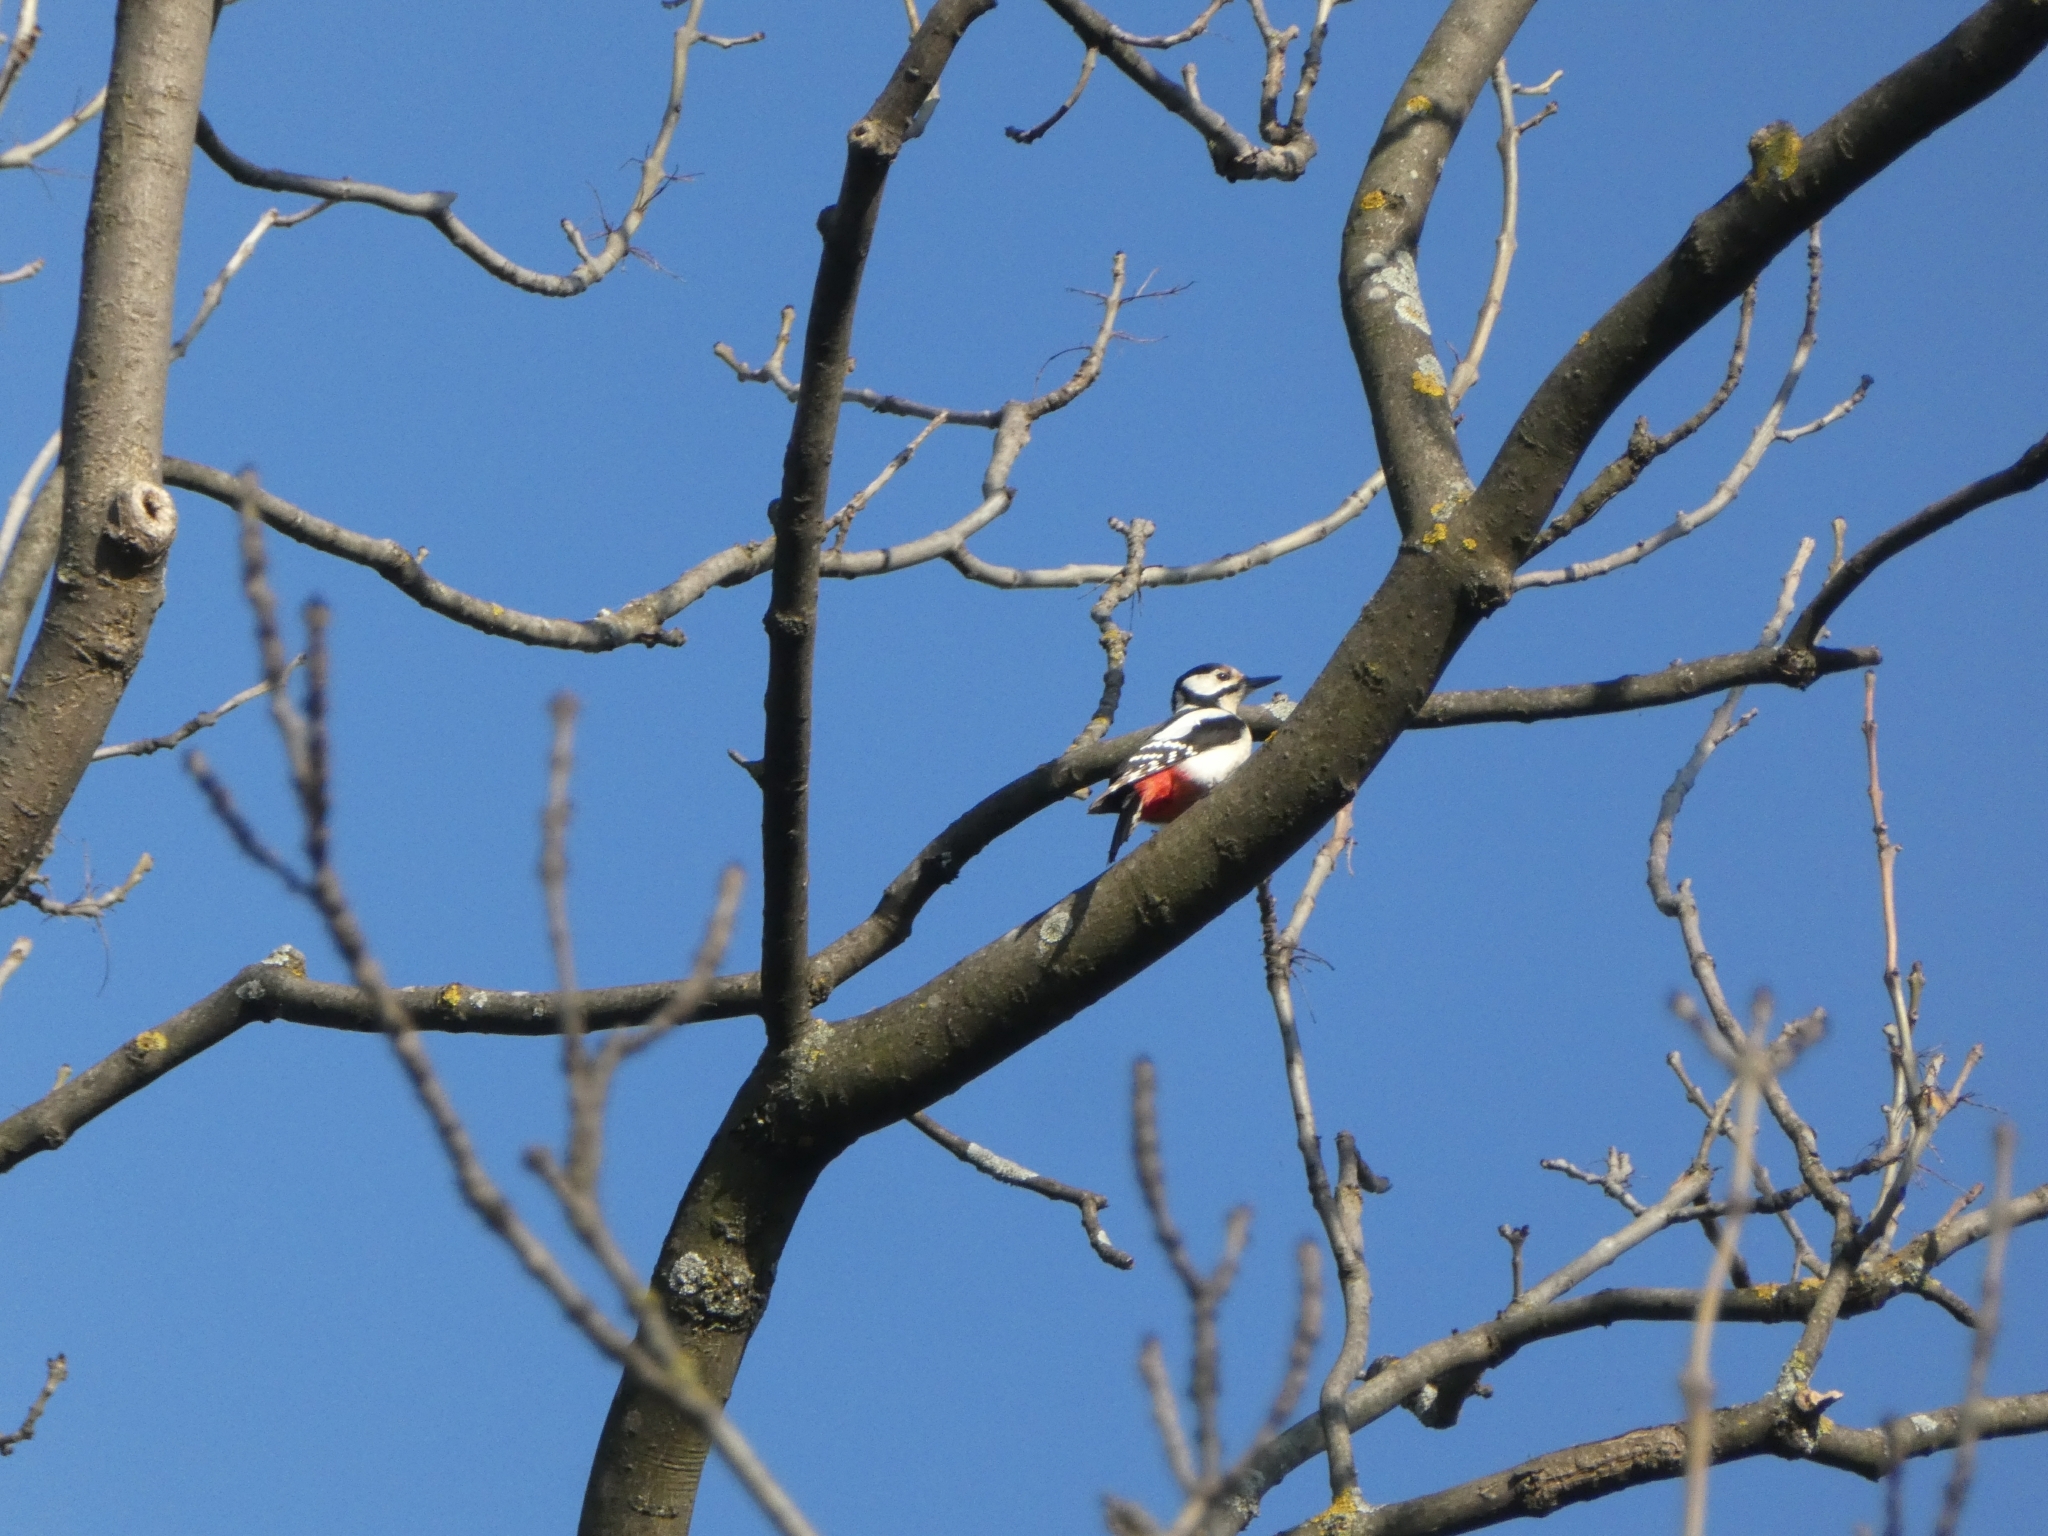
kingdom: Animalia
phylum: Chordata
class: Aves
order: Piciformes
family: Picidae
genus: Dendrocopos
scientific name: Dendrocopos major
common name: Great spotted woodpecker
